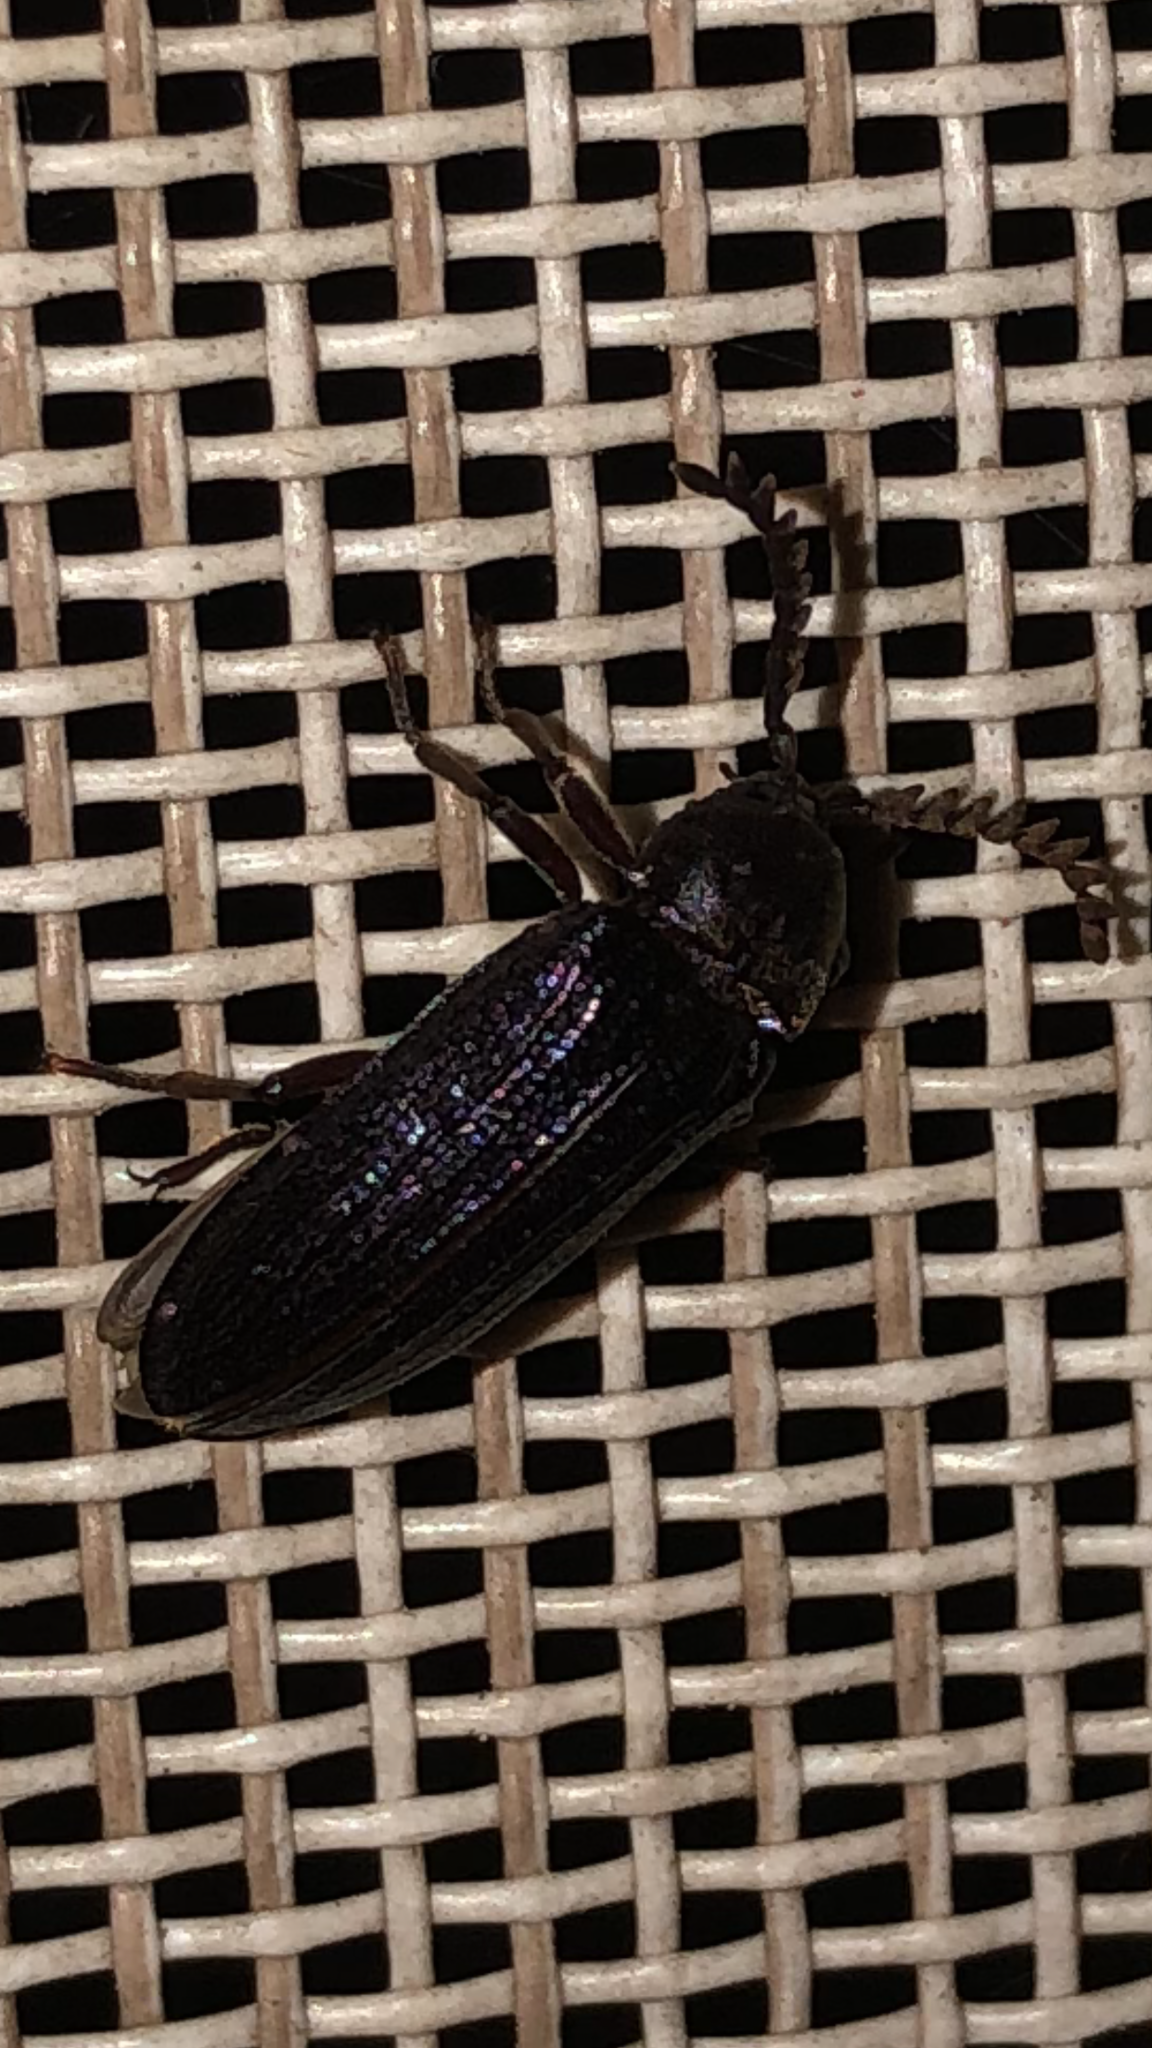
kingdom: Animalia
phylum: Arthropoda
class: Insecta
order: Coleoptera
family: Callirhipidae
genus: Zenoa
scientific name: Zenoa picea
